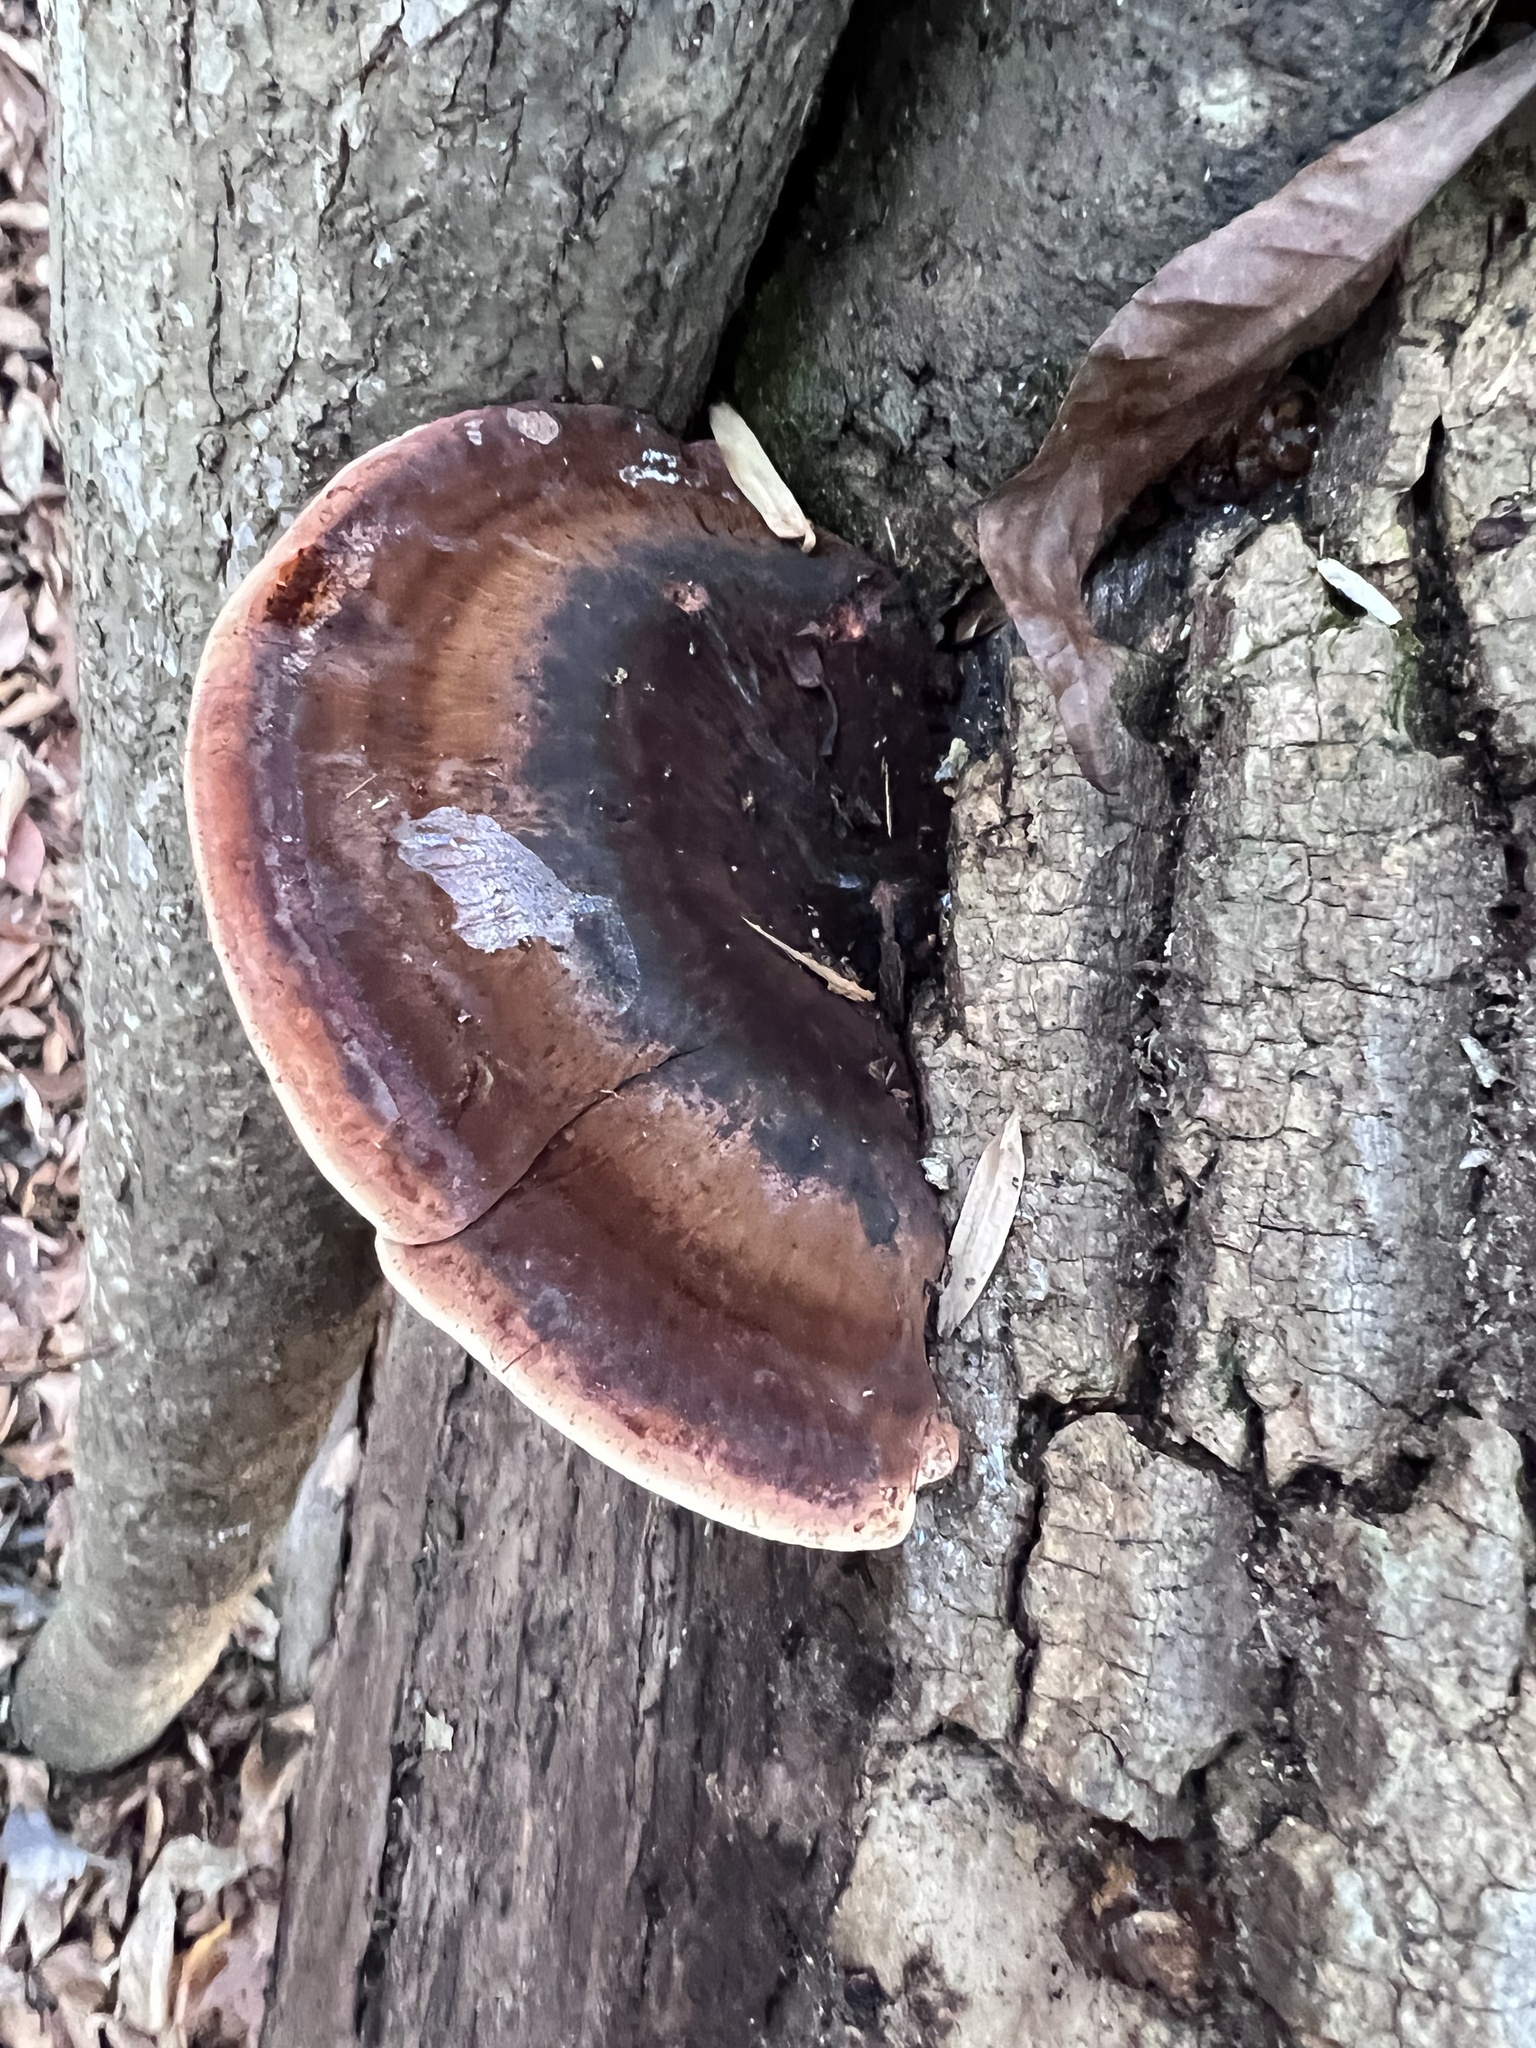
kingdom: Fungi
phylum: Basidiomycota
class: Agaricomycetes
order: Polyporales
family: Ischnodermataceae
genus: Ischnoderma
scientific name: Ischnoderma resinosum
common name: Resinous polypore
